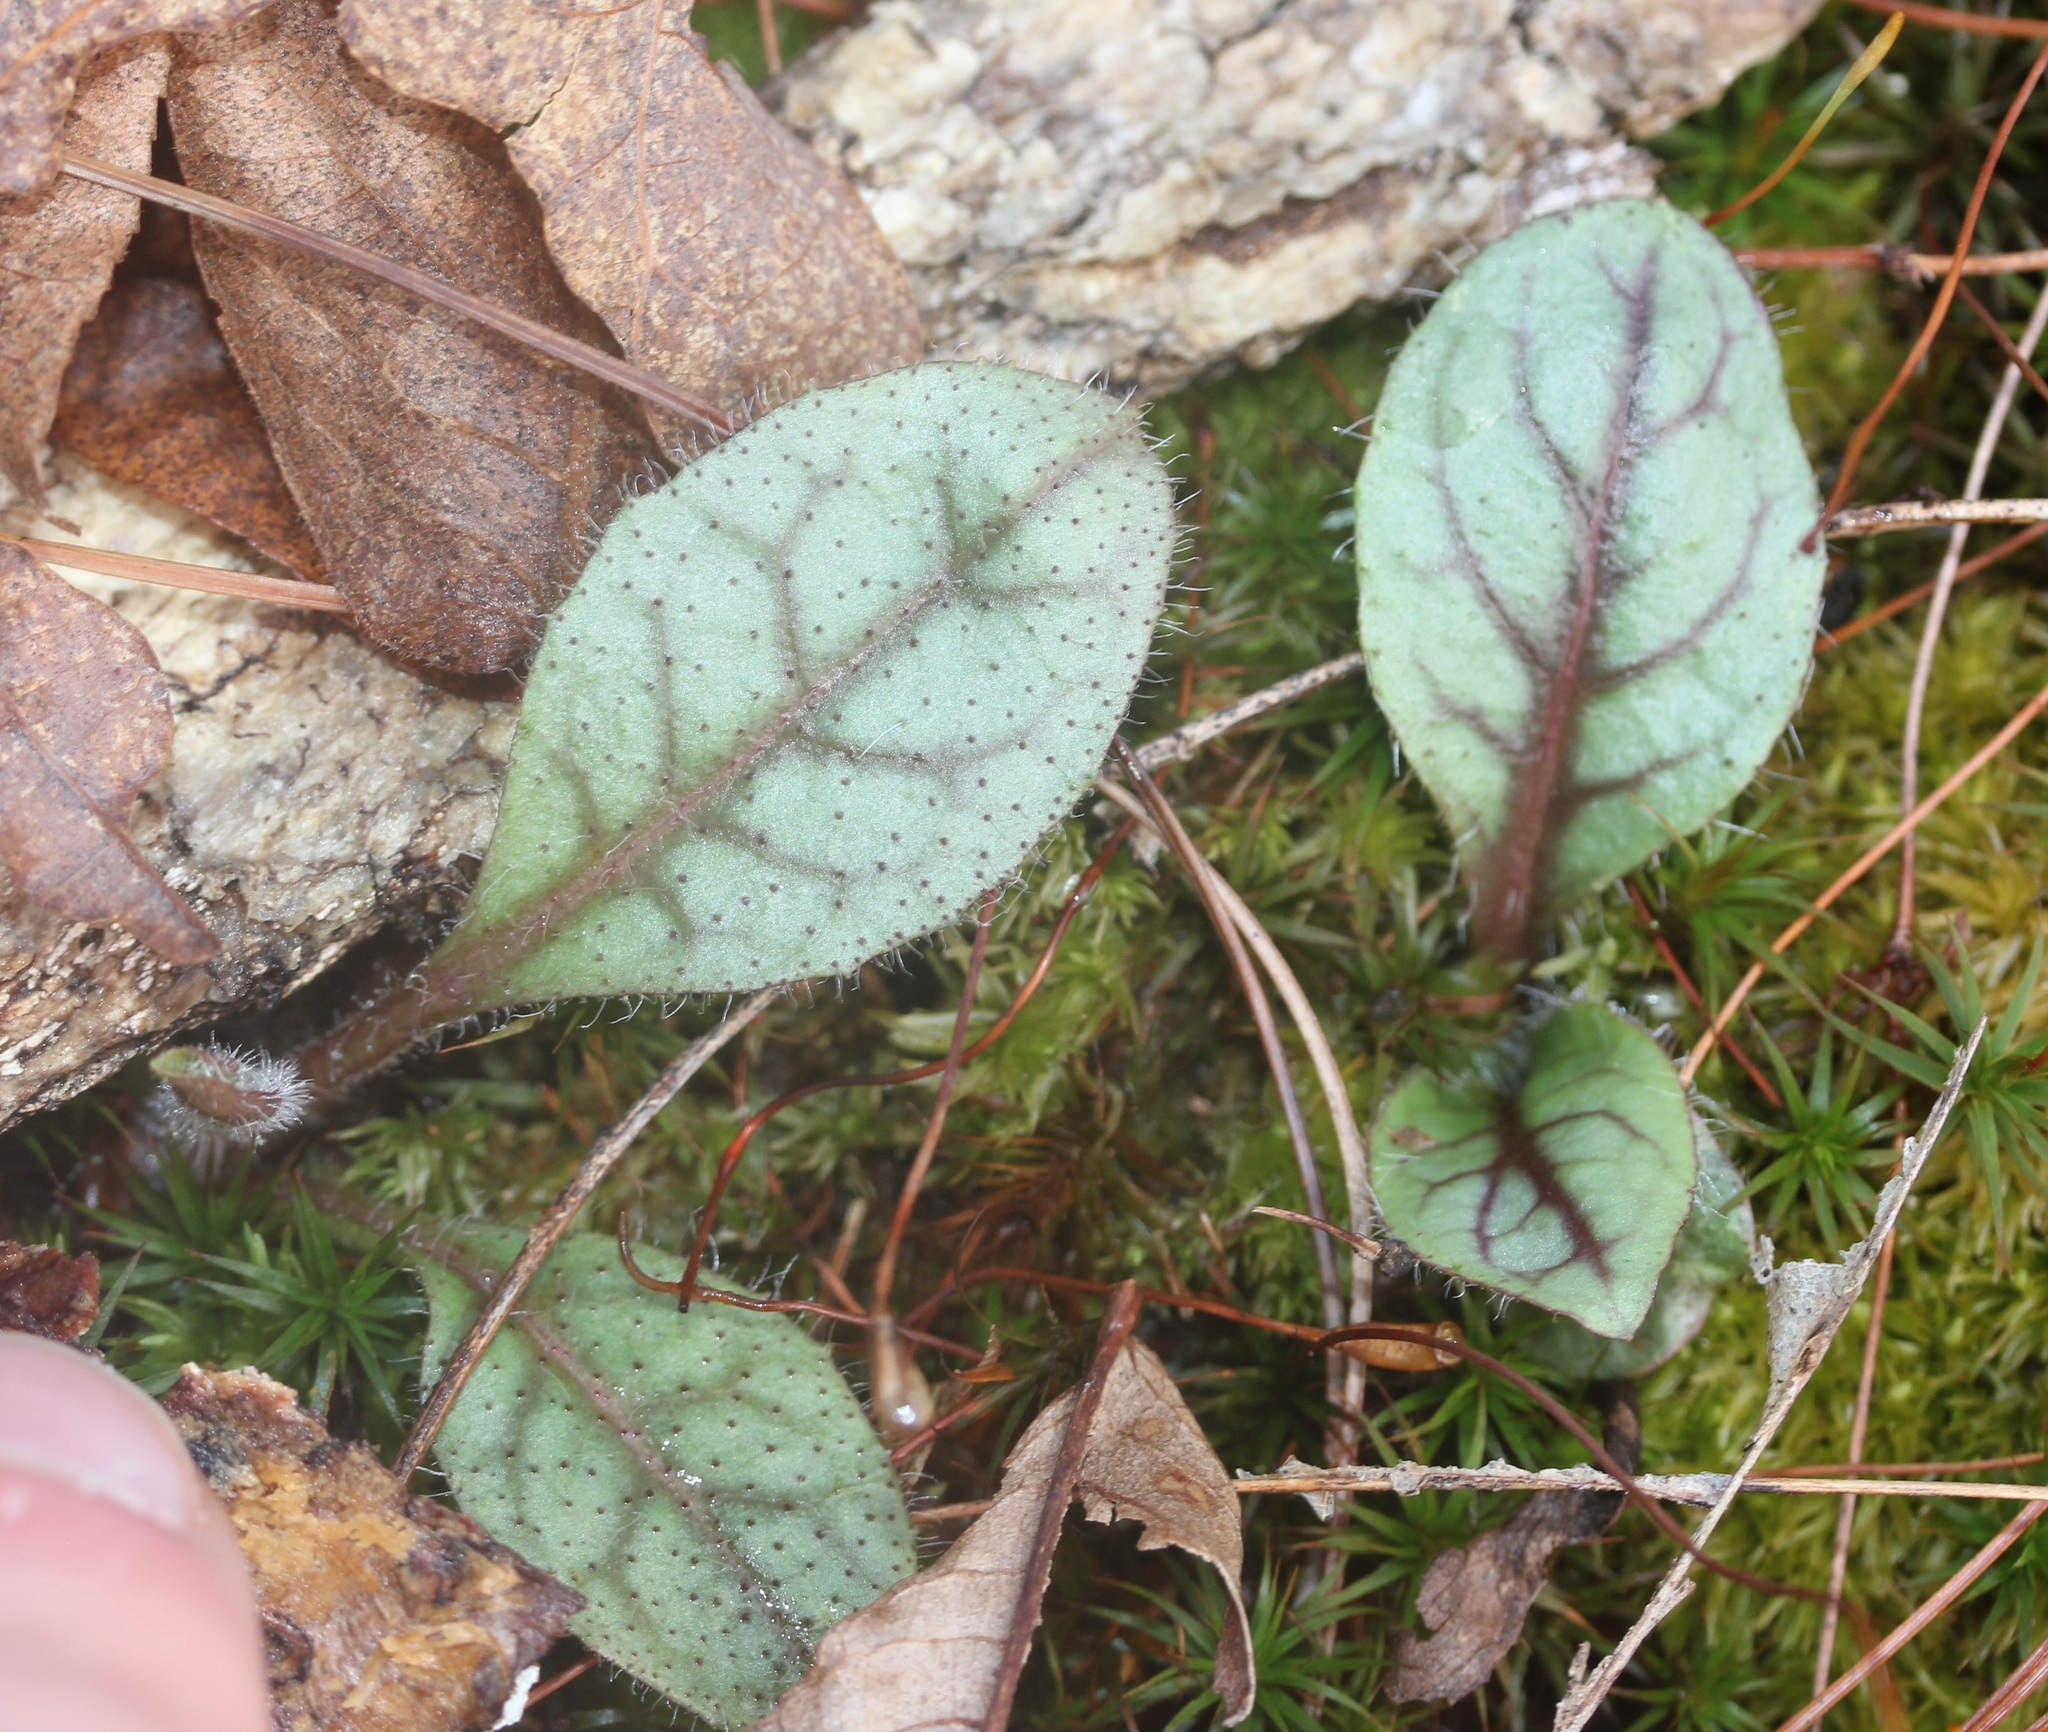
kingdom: Plantae
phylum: Tracheophyta
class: Magnoliopsida
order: Asterales
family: Asteraceae
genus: Hieracium
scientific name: Hieracium venosum
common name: Rattlesnake hawkweed
